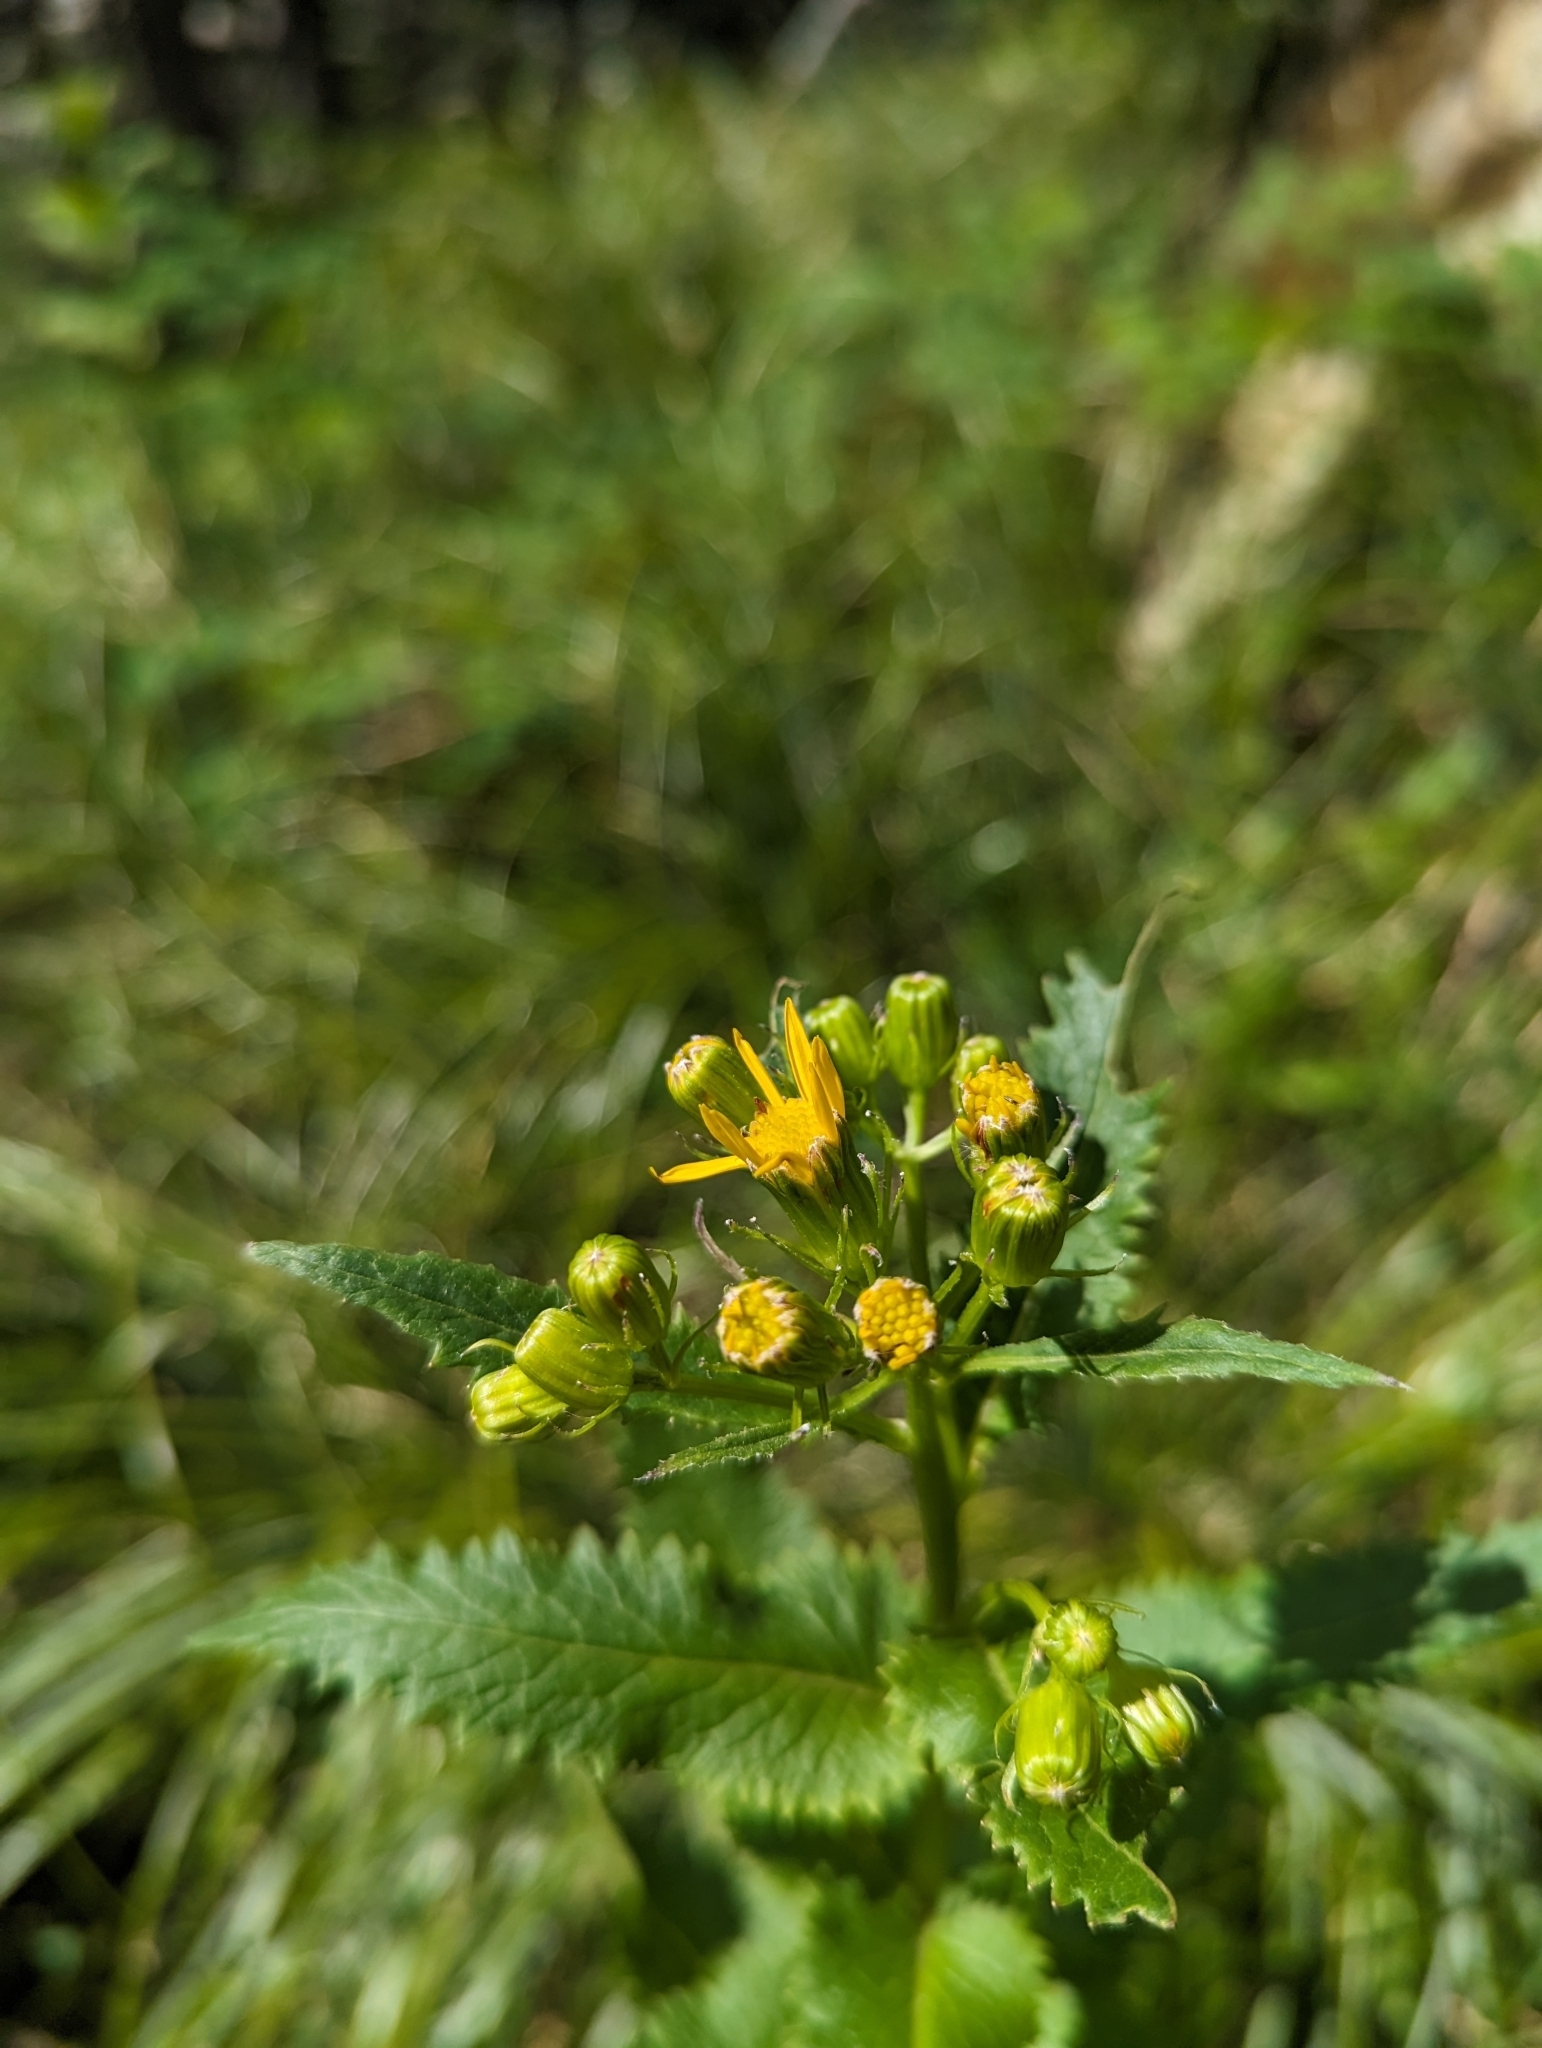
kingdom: Plantae
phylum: Tracheophyta
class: Magnoliopsida
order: Asterales
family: Asteraceae
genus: Senecio
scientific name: Senecio triangularis
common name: Arrowleaf butterweed
